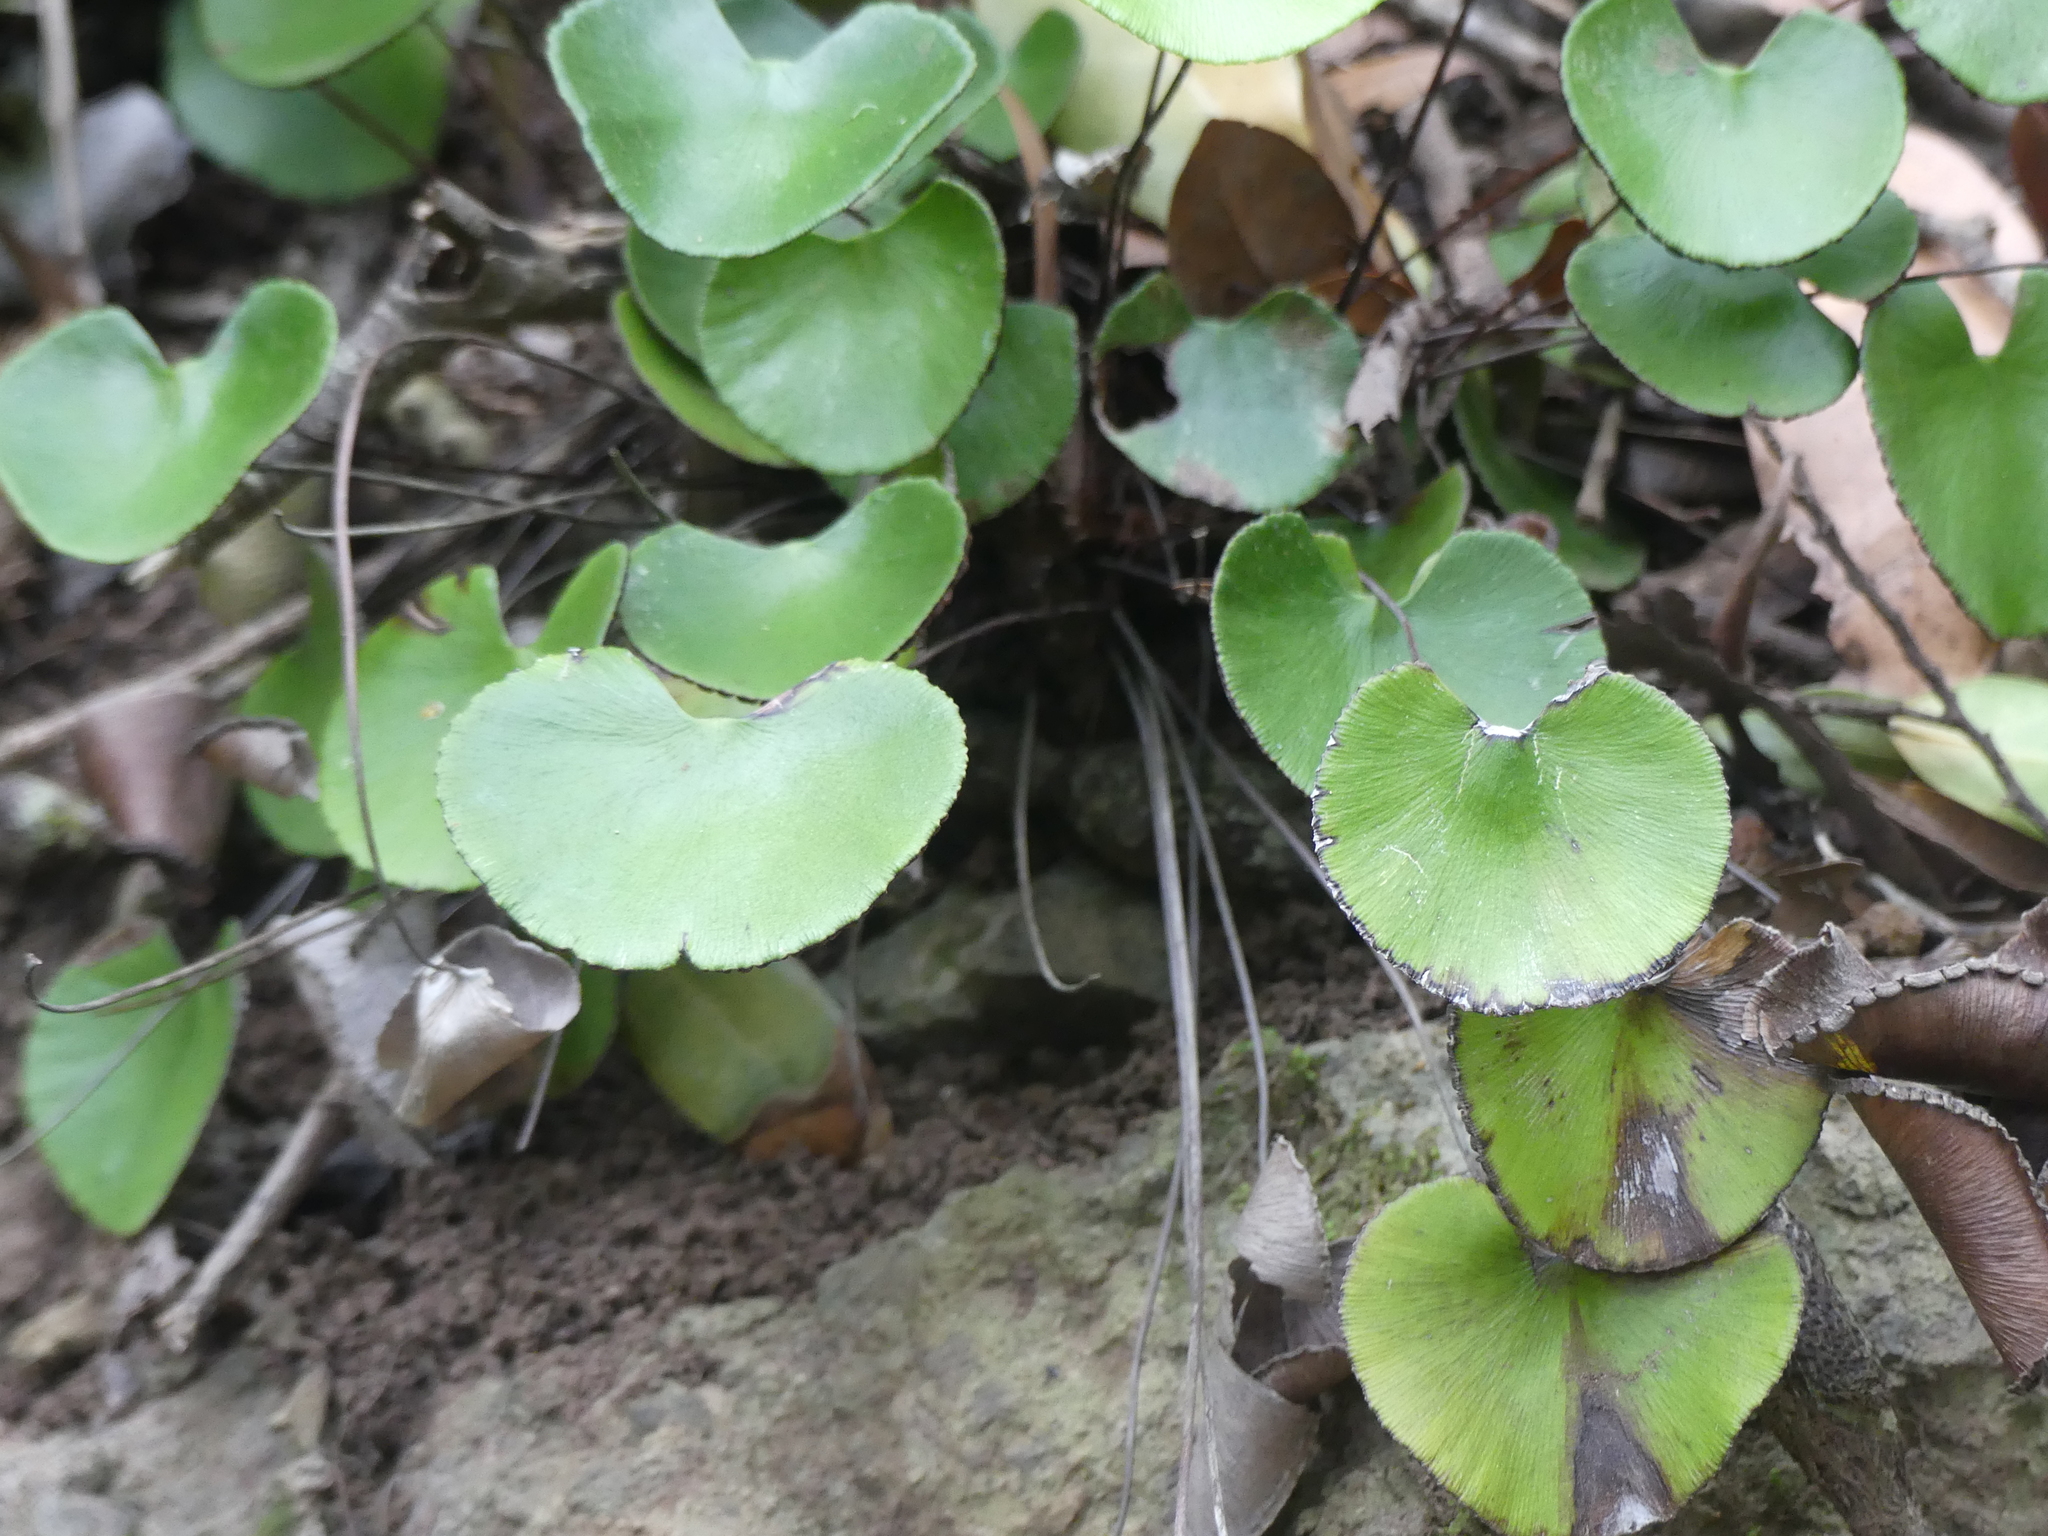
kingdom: Plantae
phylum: Tracheophyta
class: Polypodiopsida
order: Polypodiales
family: Pteridaceae
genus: Adiantum
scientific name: Adiantum reniforme
